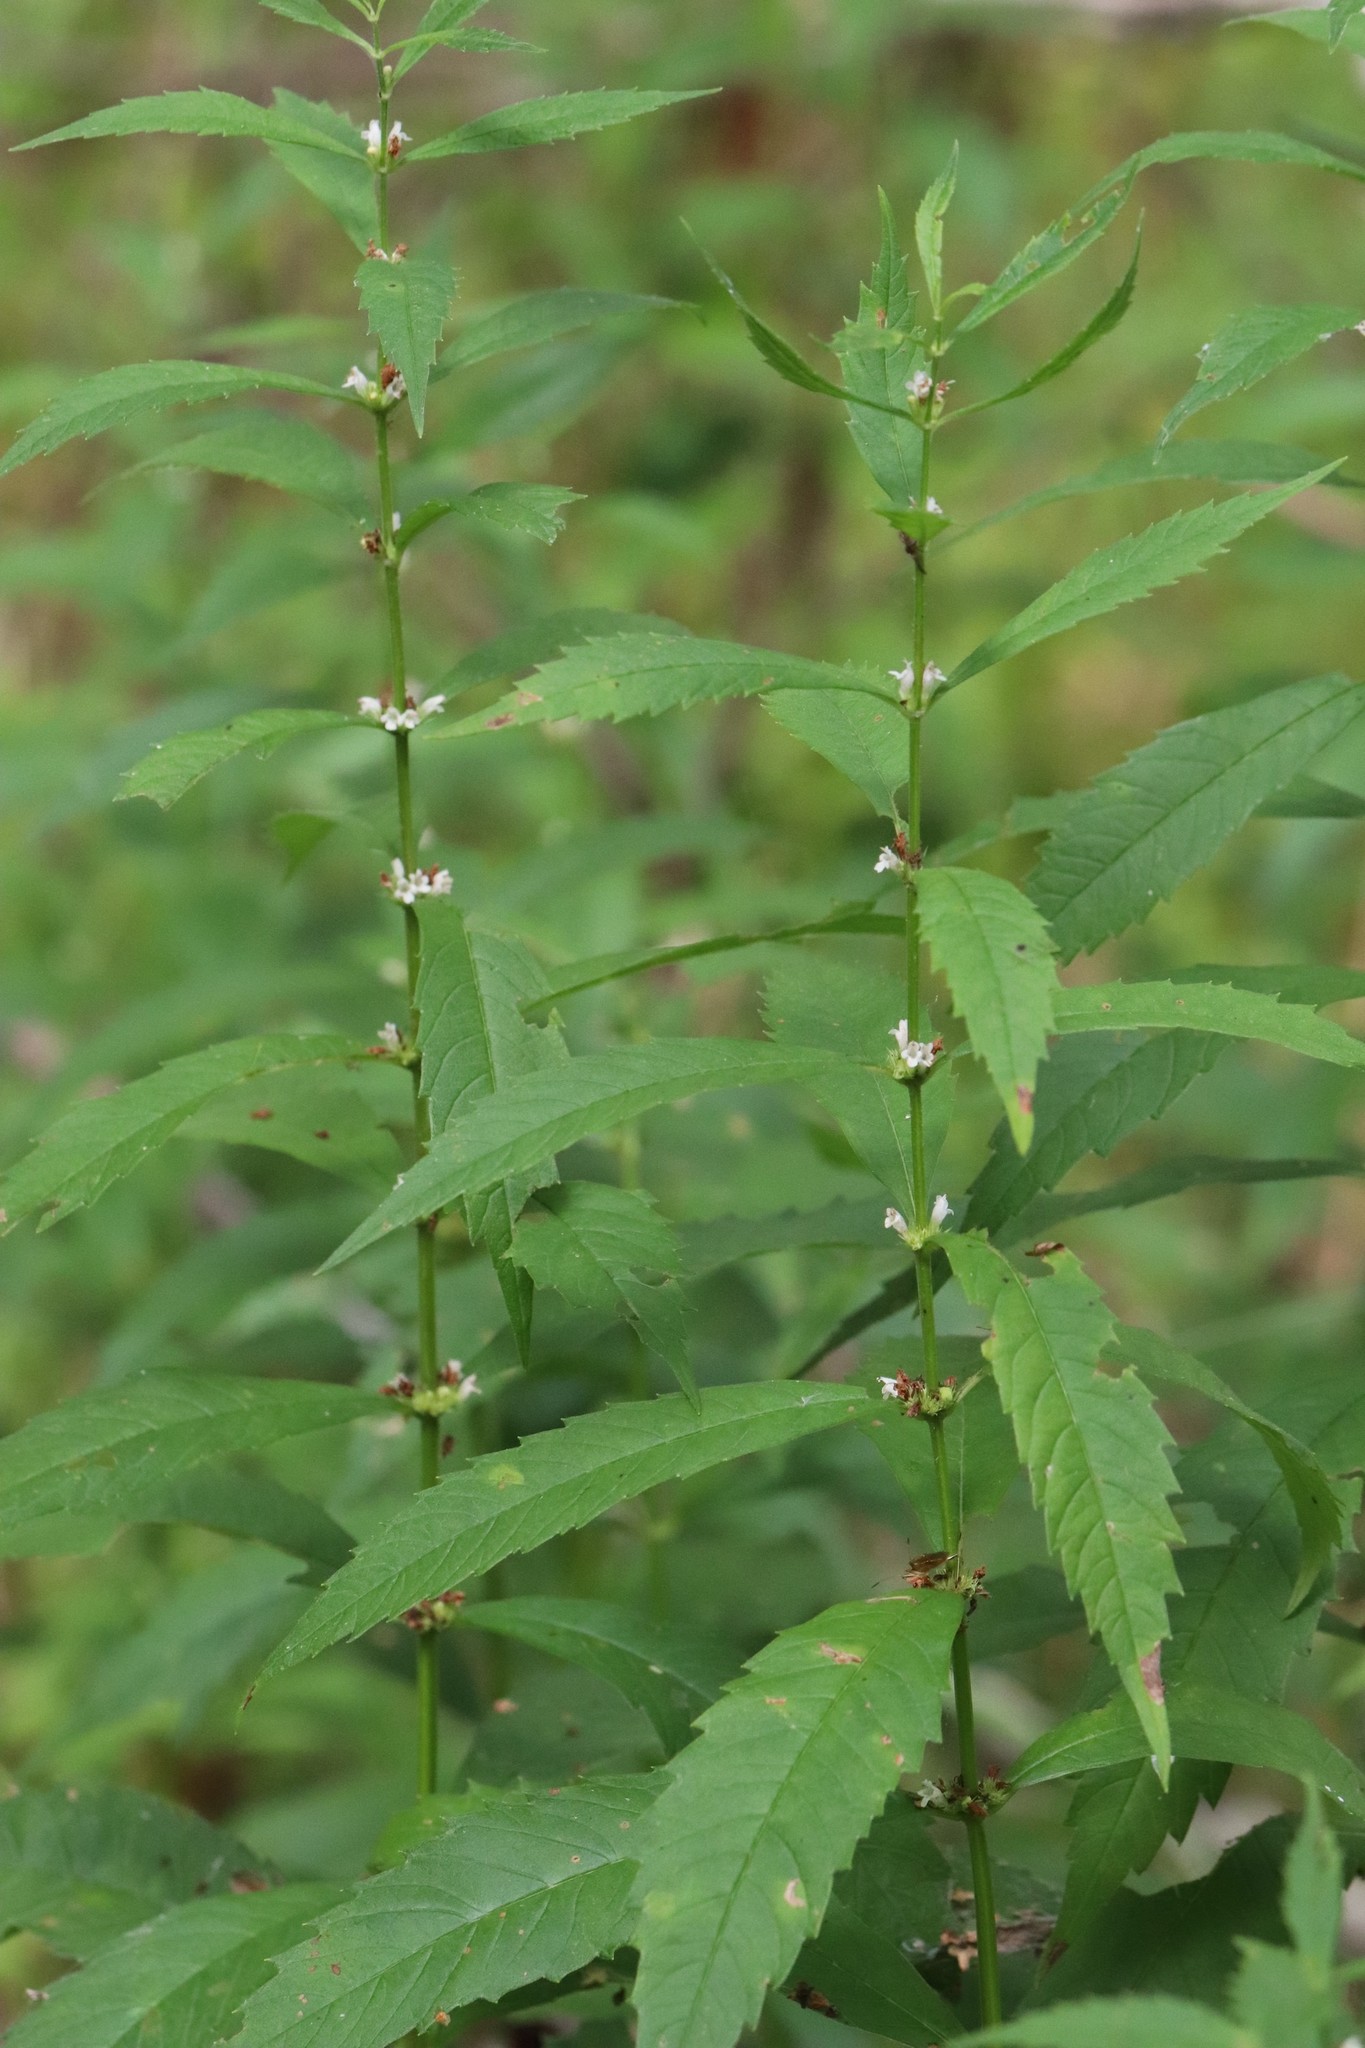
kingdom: Plantae
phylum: Tracheophyta
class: Magnoliopsida
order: Lamiales
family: Lamiaceae
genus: Lycopus
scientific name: Lycopus lucidus
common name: Shiny bugleweed
